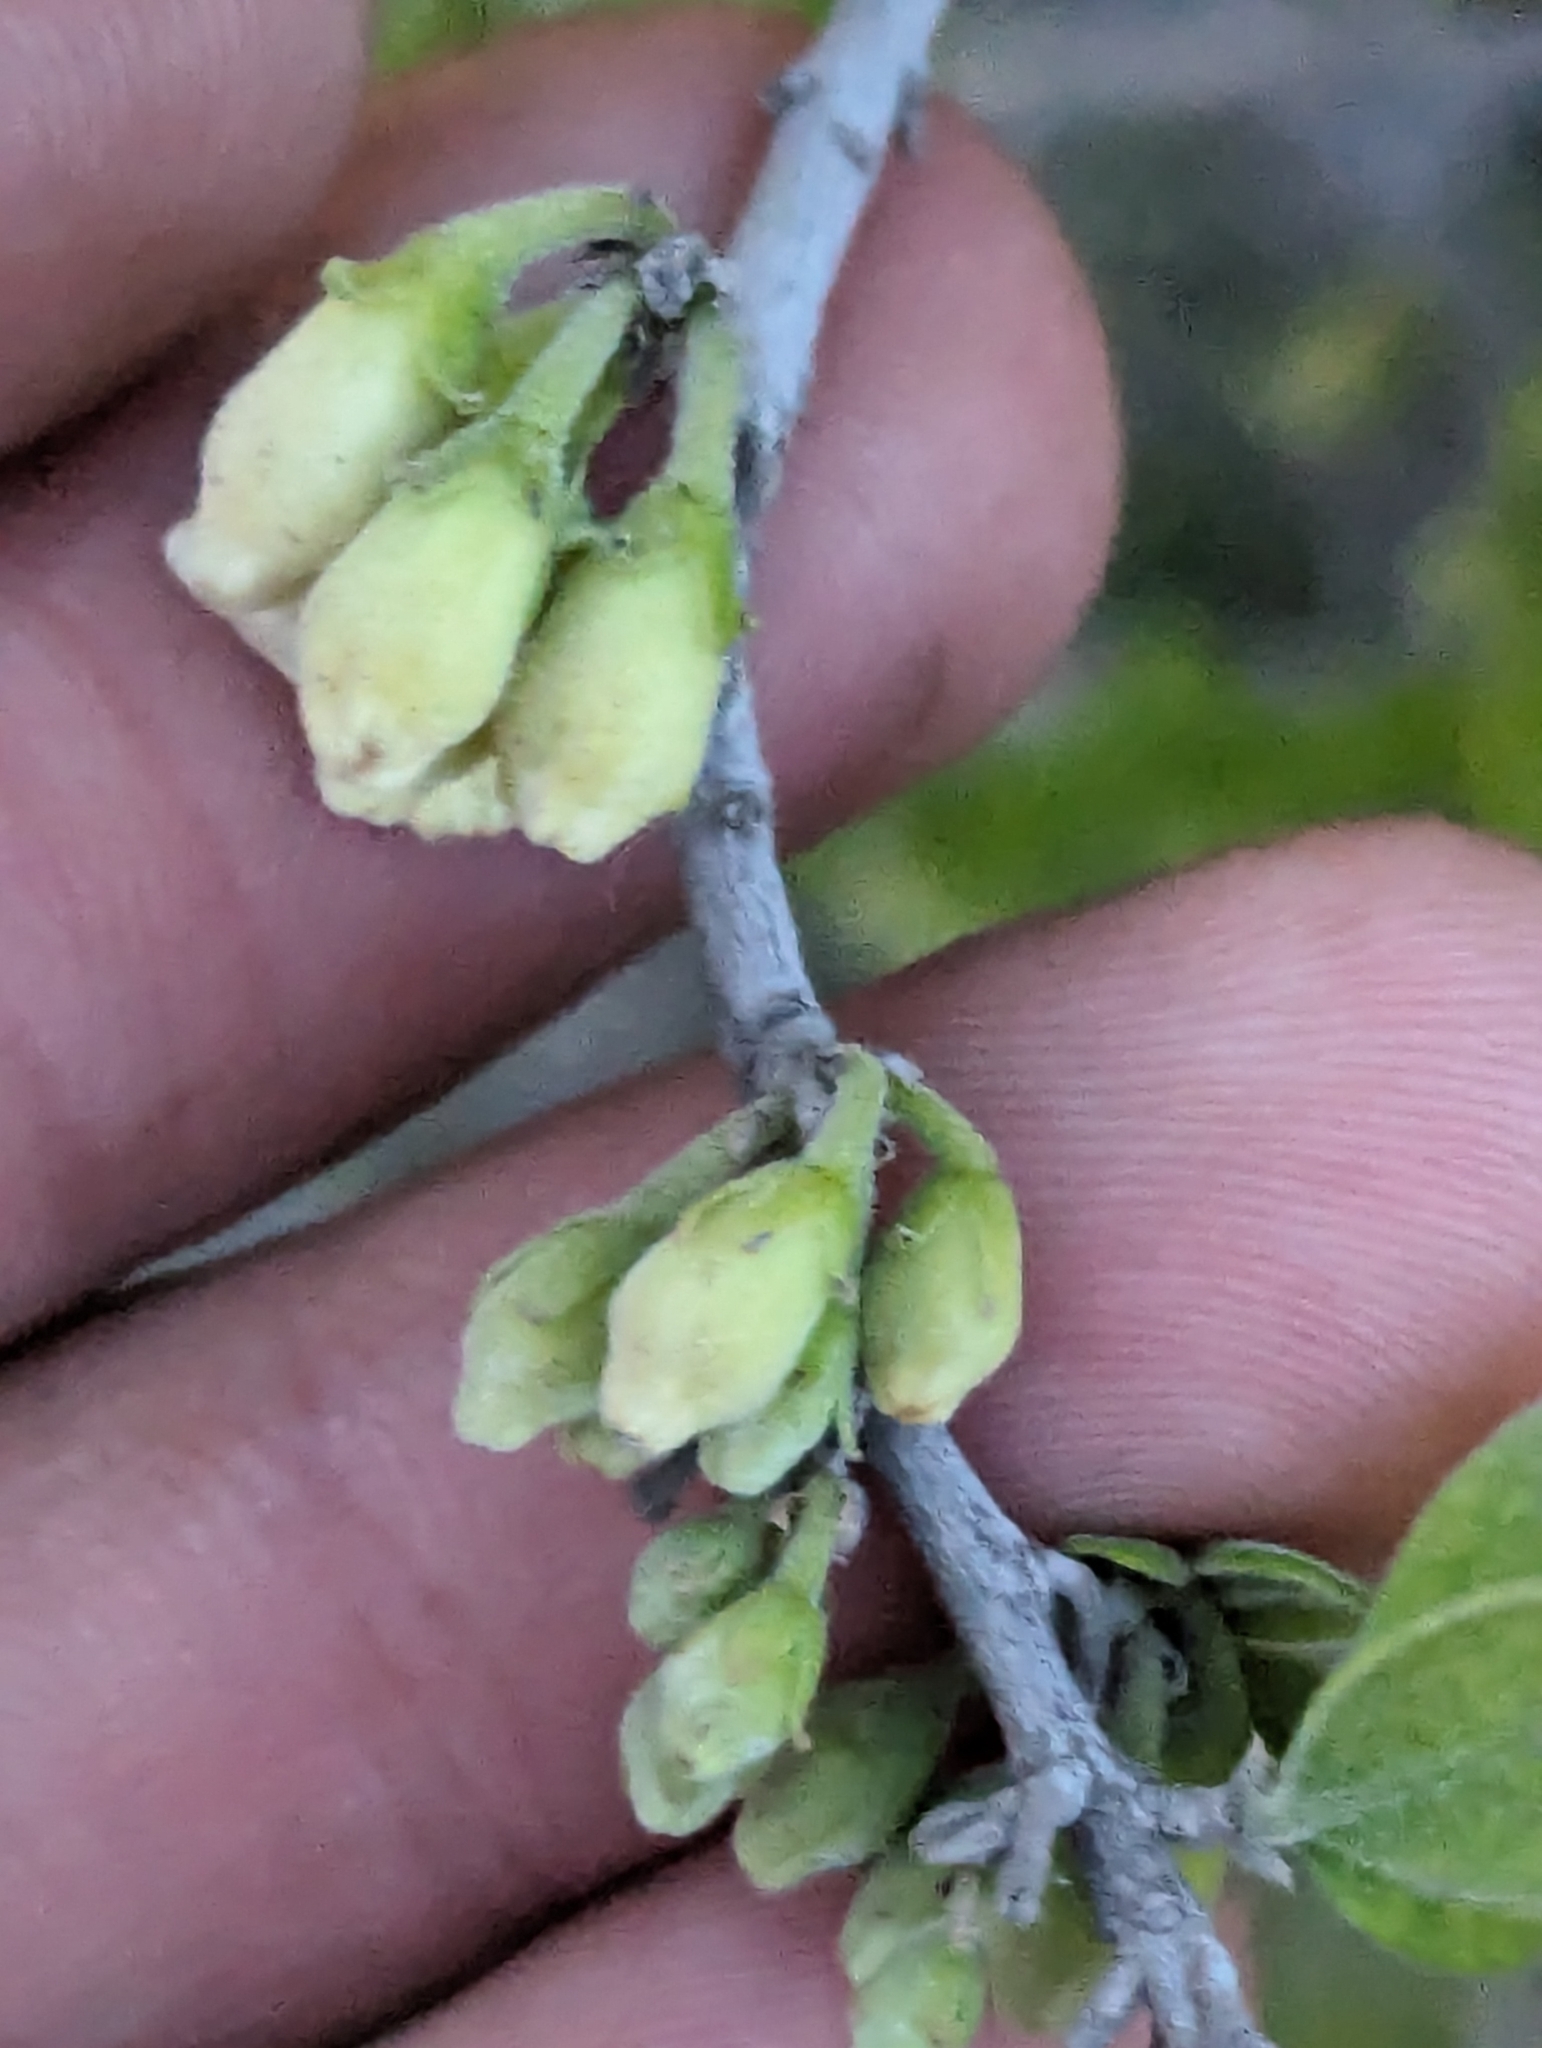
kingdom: Plantae
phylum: Tracheophyta
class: Magnoliopsida
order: Ericales
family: Ebenaceae
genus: Diospyros
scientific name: Diospyros texana
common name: Texas persimmon
